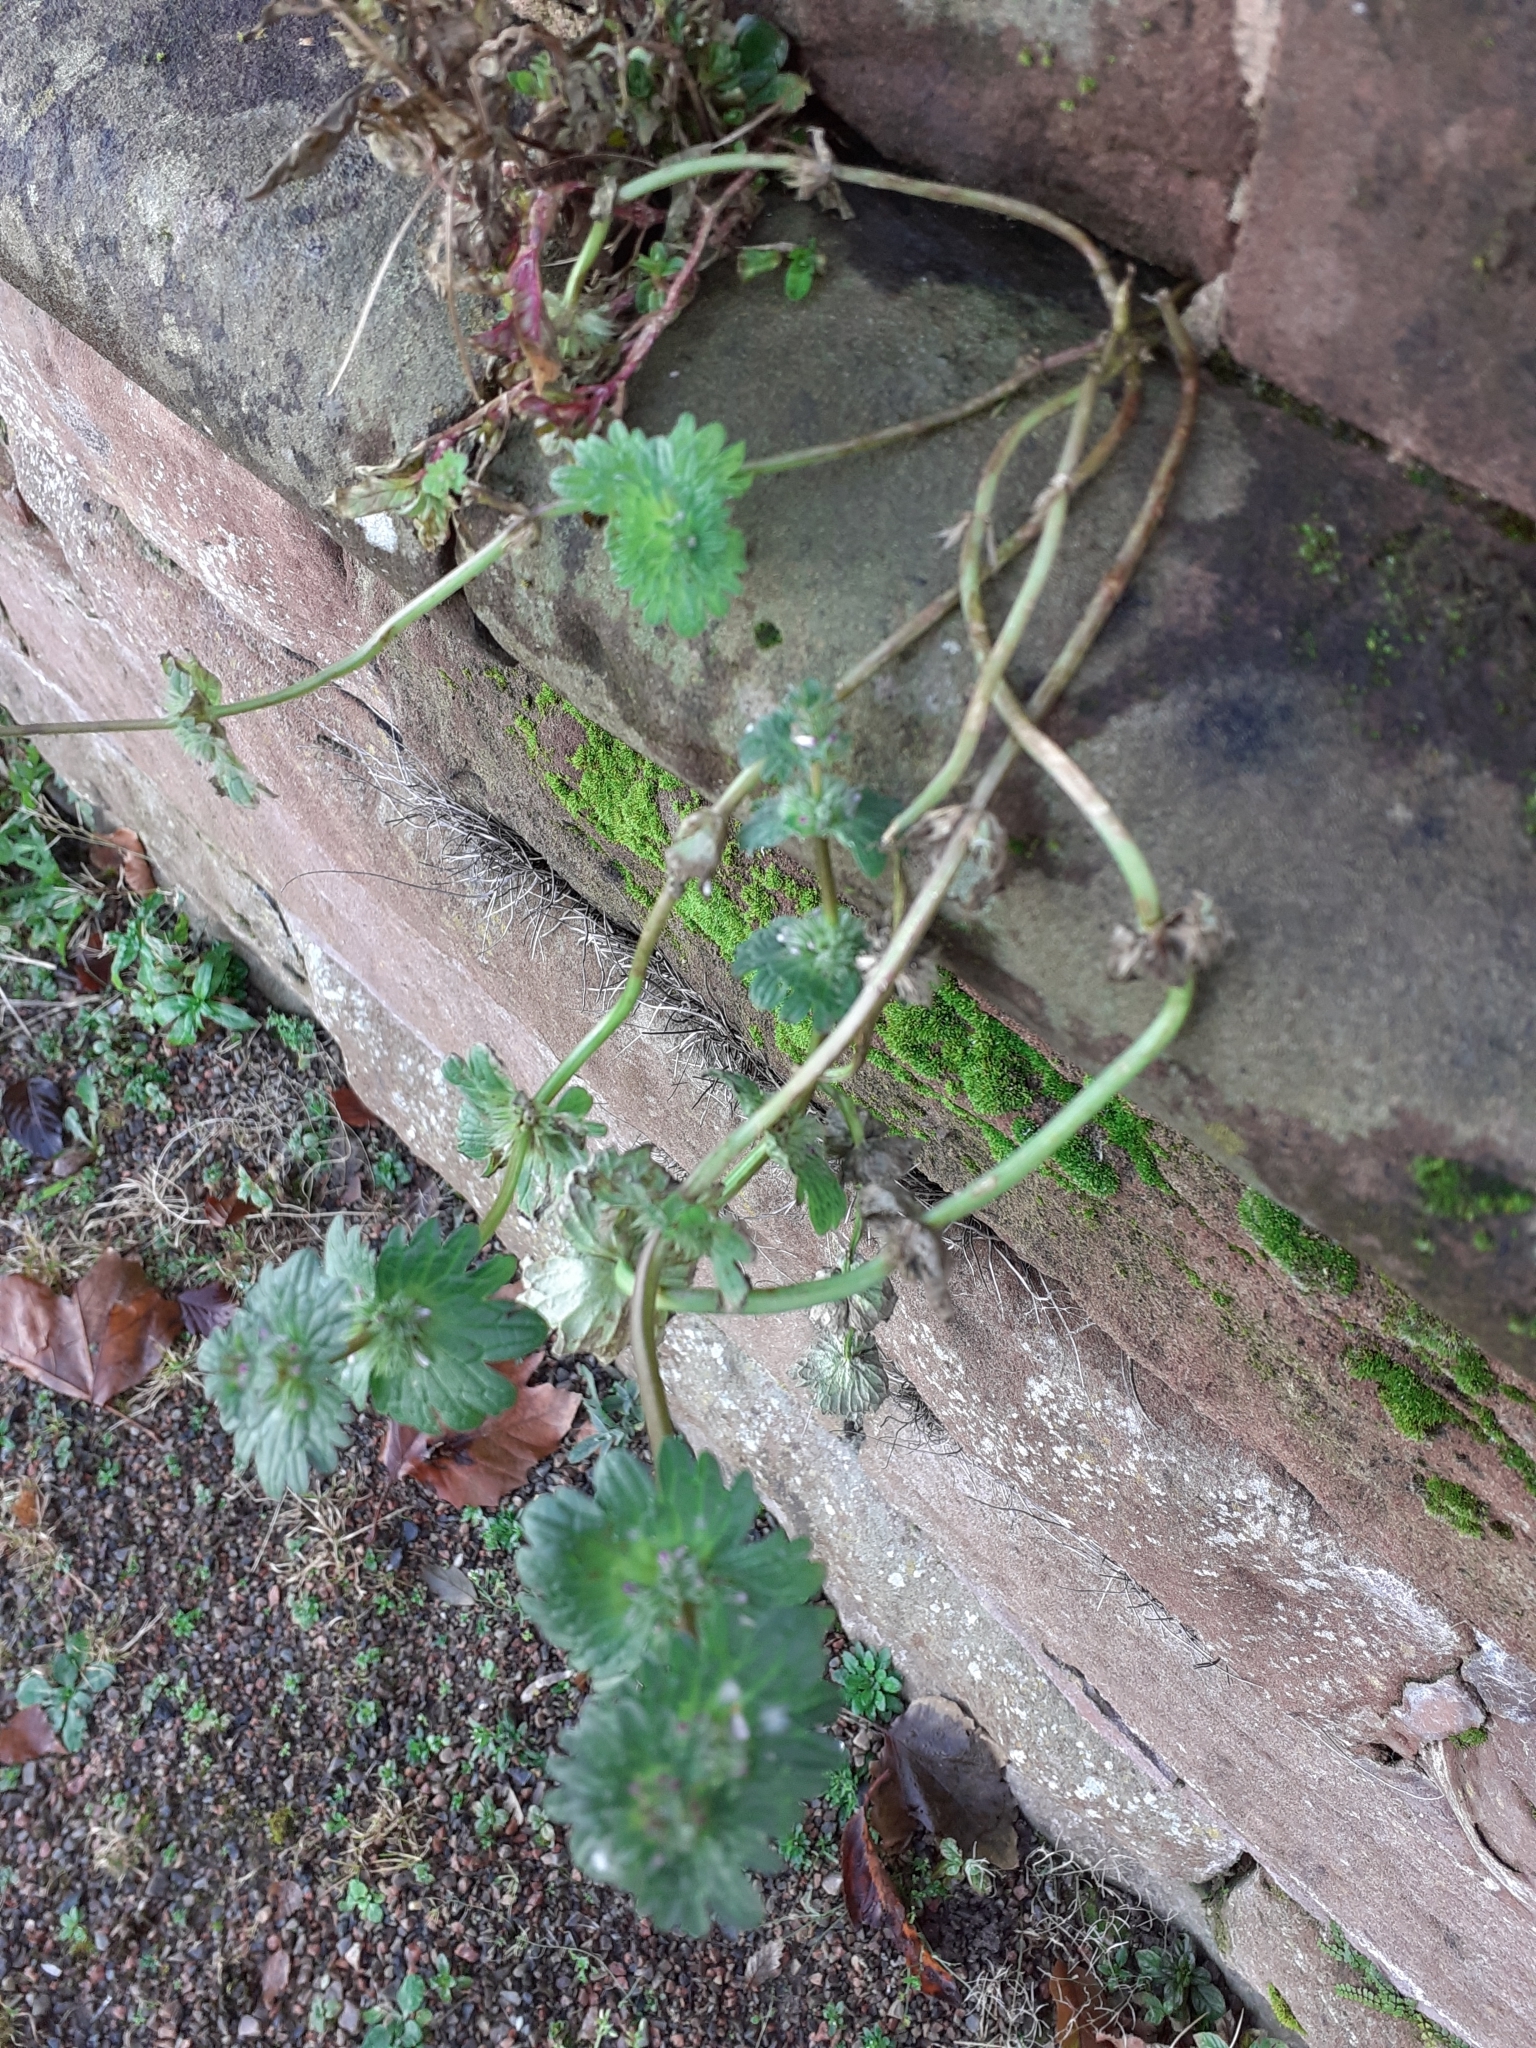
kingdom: Plantae
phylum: Tracheophyta
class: Magnoliopsida
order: Lamiales
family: Lamiaceae
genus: Lamium
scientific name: Lamium amplexicaule
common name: Henbit dead-nettle
